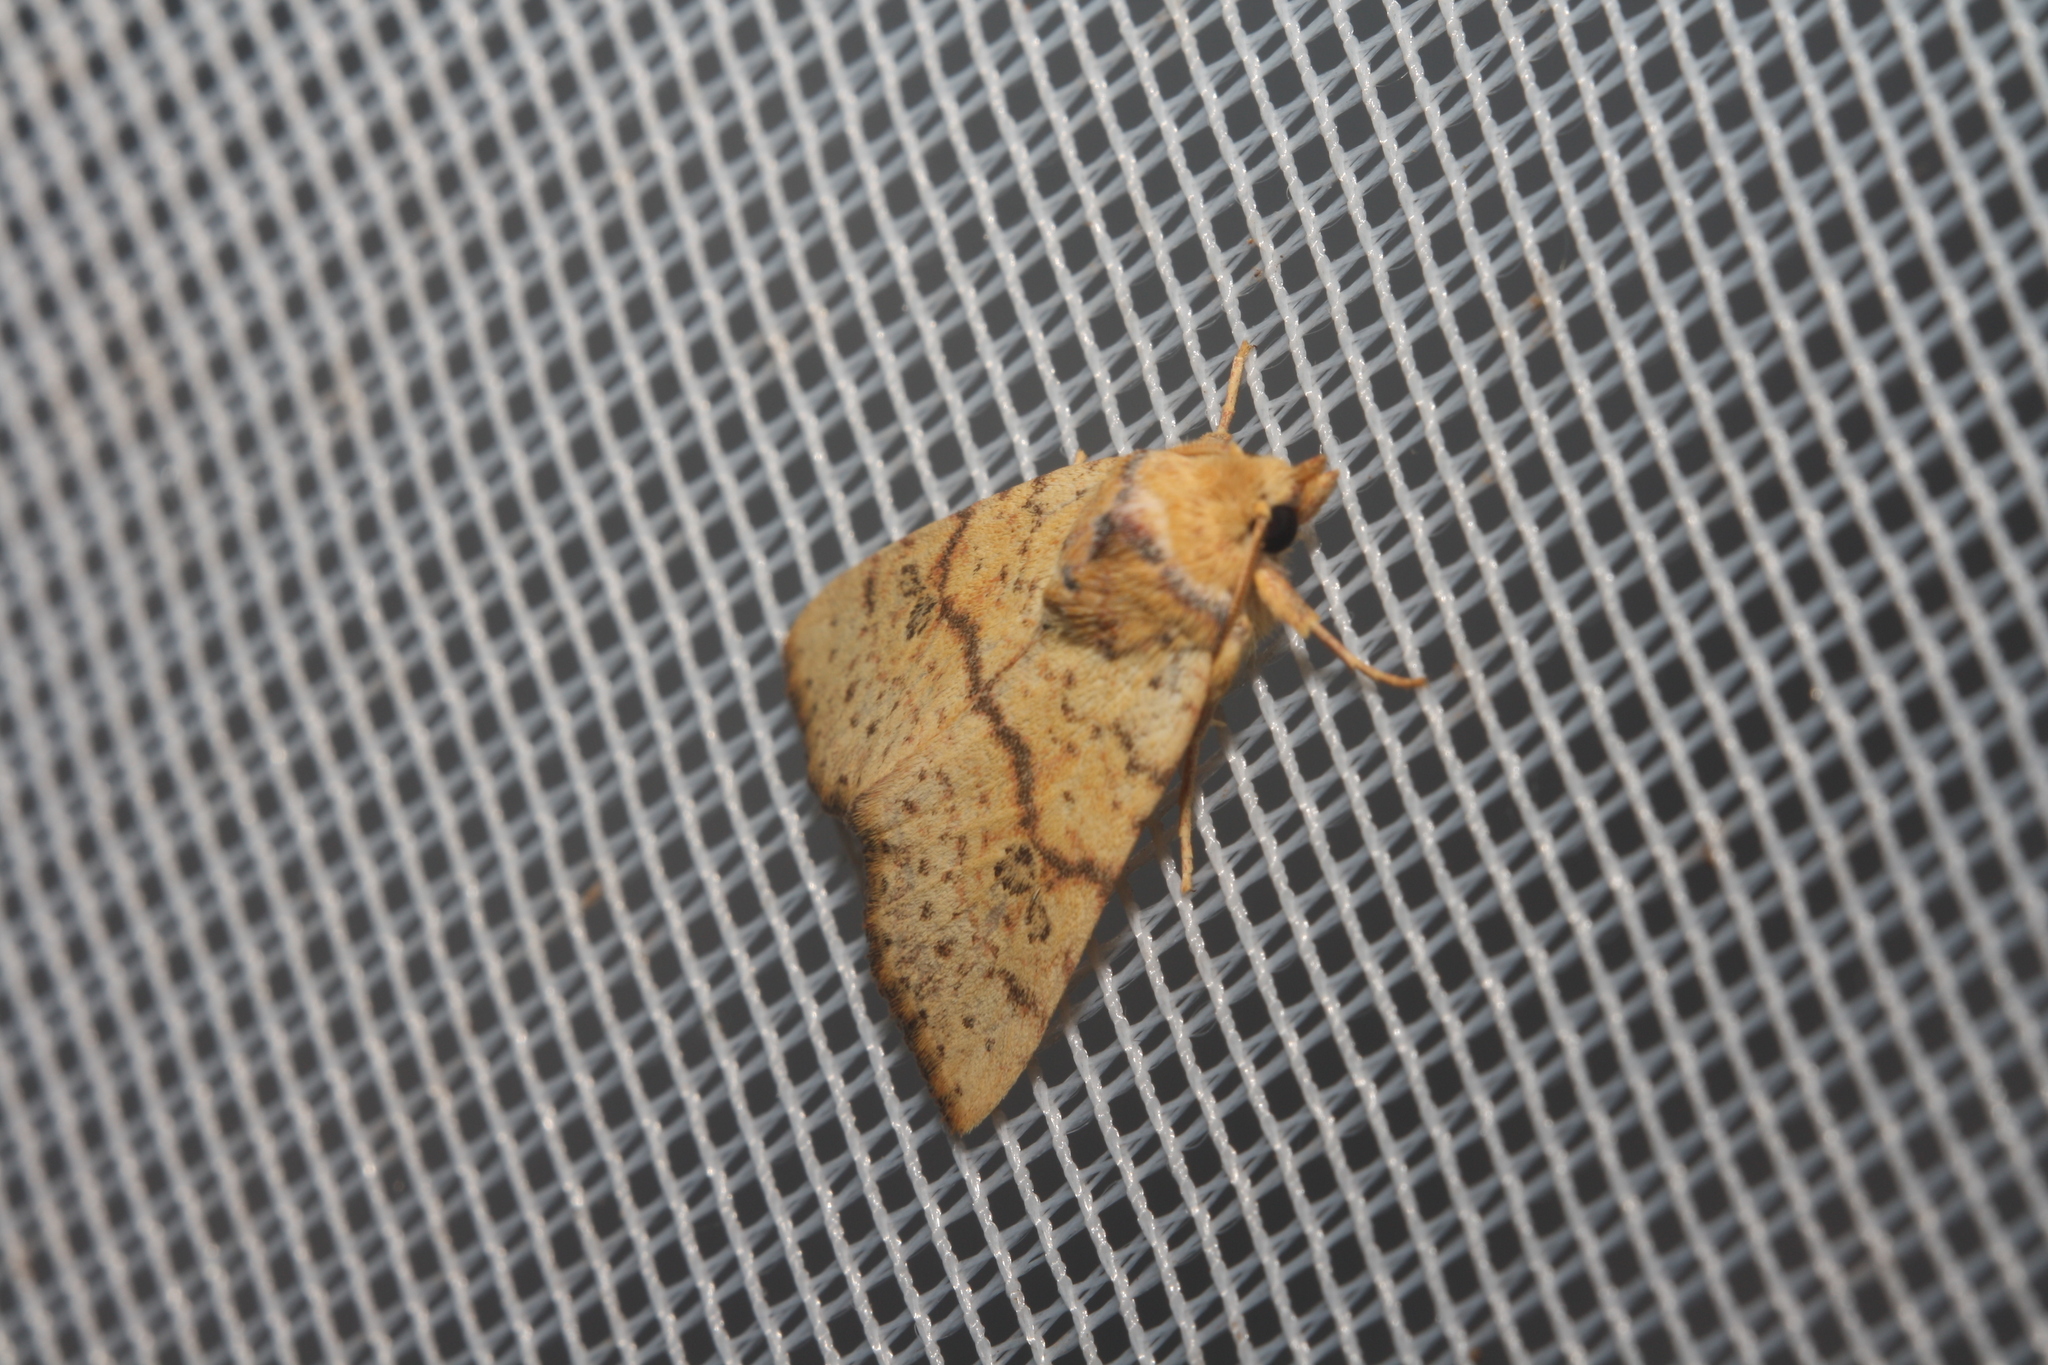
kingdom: Animalia
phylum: Arthropoda
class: Insecta
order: Lepidoptera
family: Noctuidae
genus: Tiliacea
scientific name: Tiliacea sulphurago
